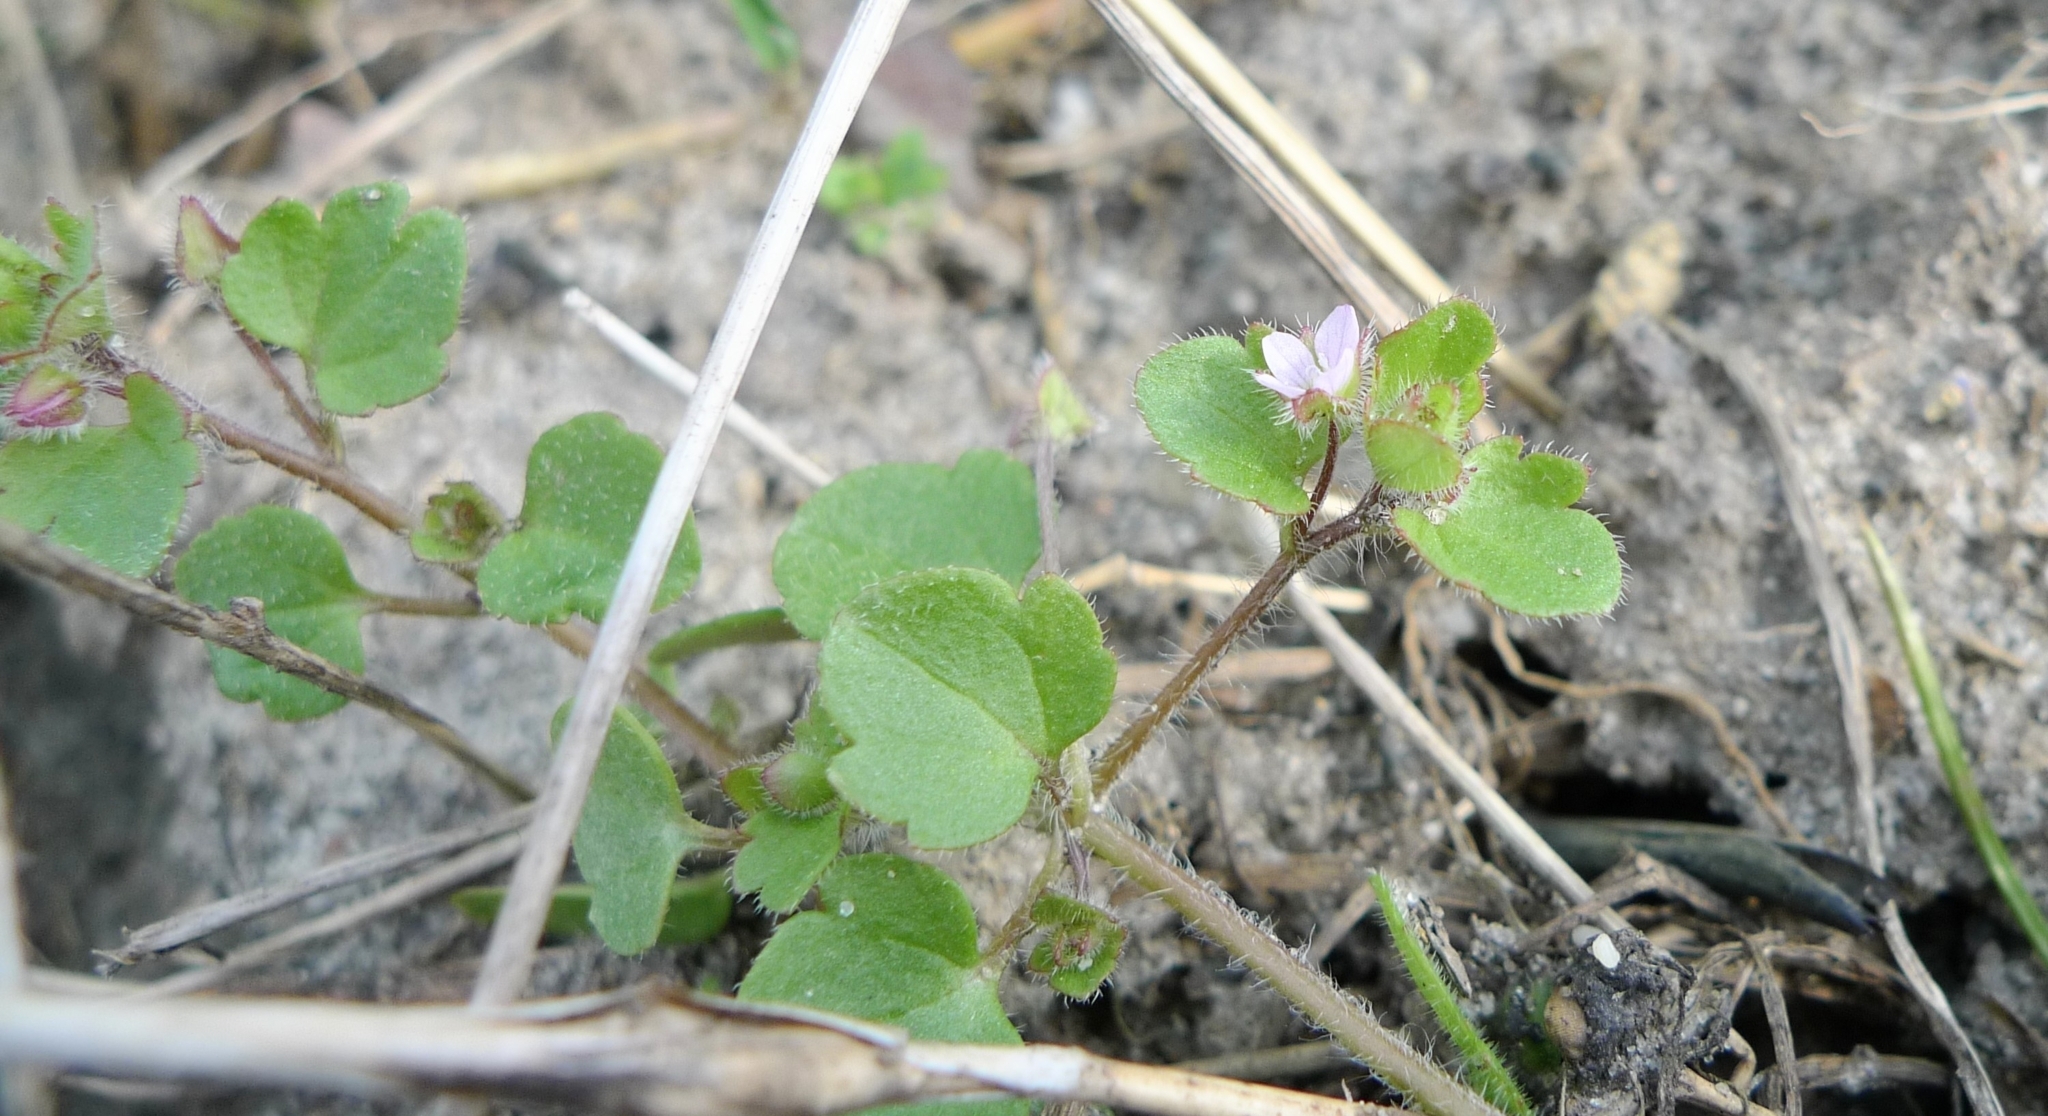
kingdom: Plantae
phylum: Tracheophyta
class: Magnoliopsida
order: Lamiales
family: Plantaginaceae
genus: Veronica
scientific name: Veronica sublobata
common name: False ivy-leaved speedwell
